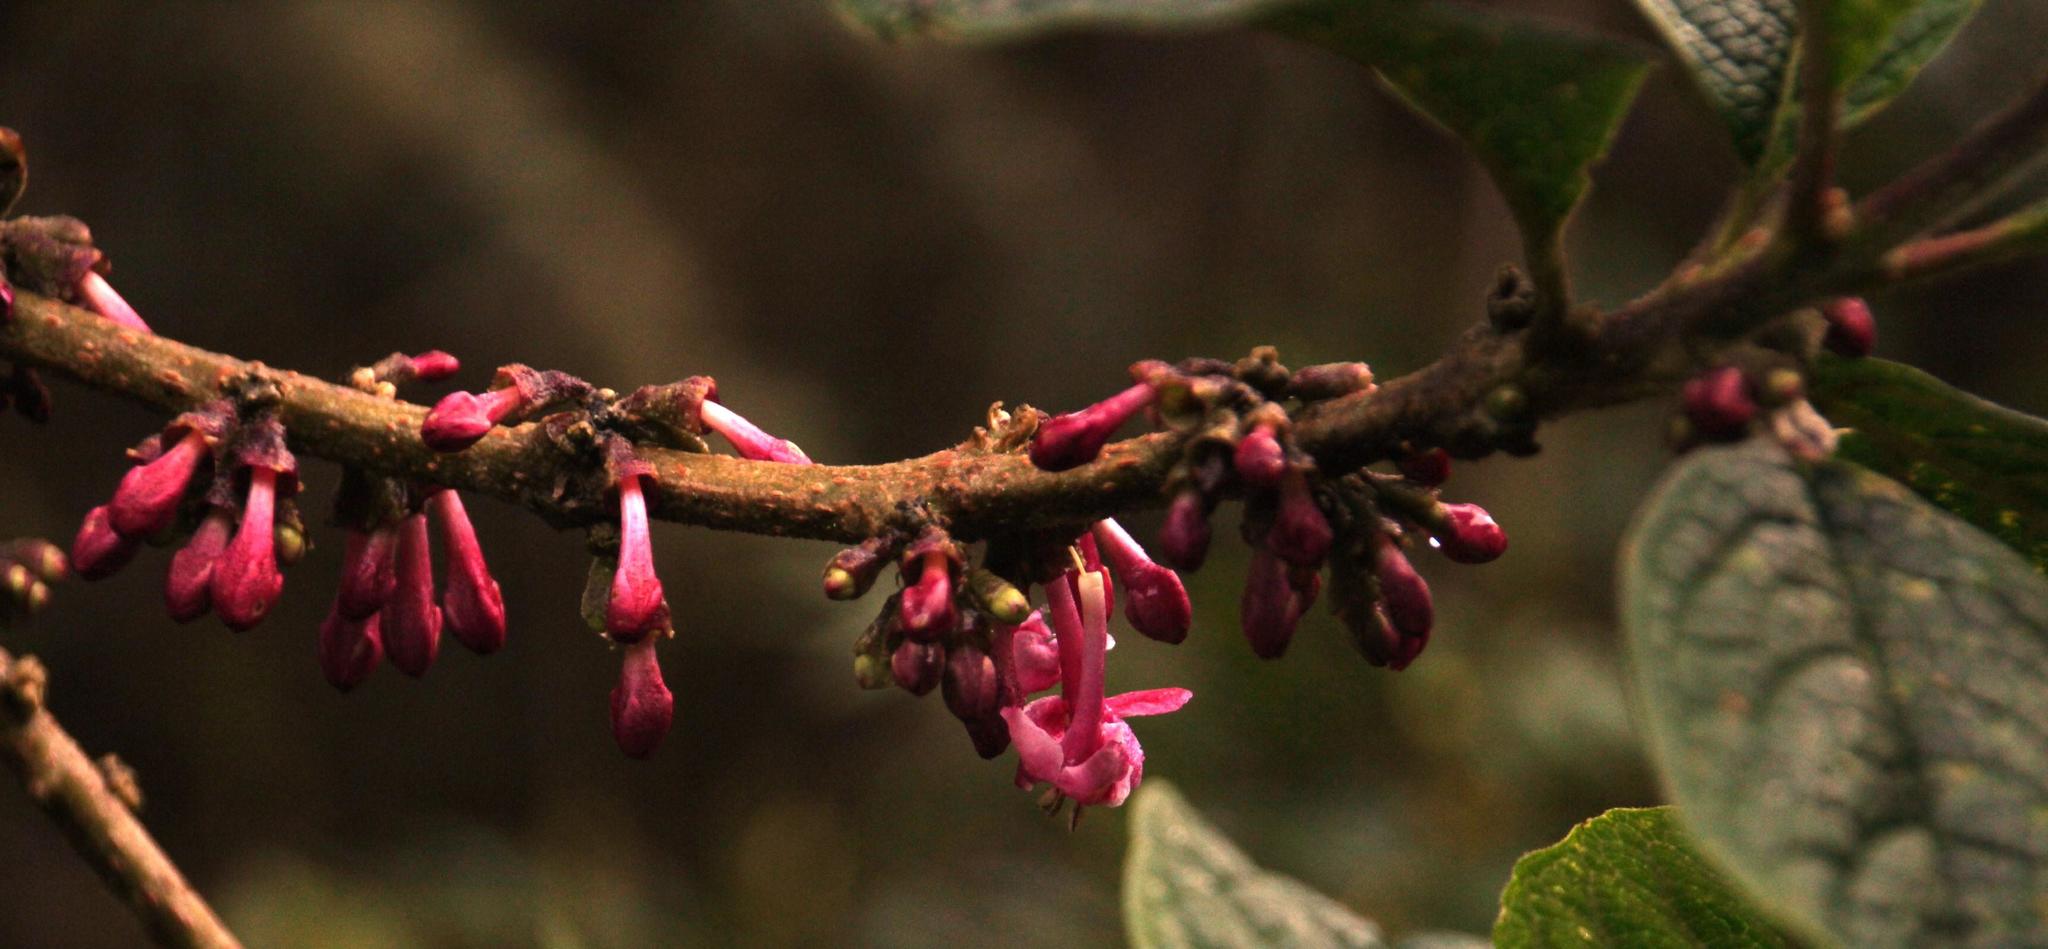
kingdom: Plantae
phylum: Tracheophyta
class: Magnoliopsida
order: Lamiales
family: Lamiaceae
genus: Aegiphila
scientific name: Aegiphila multiflora
